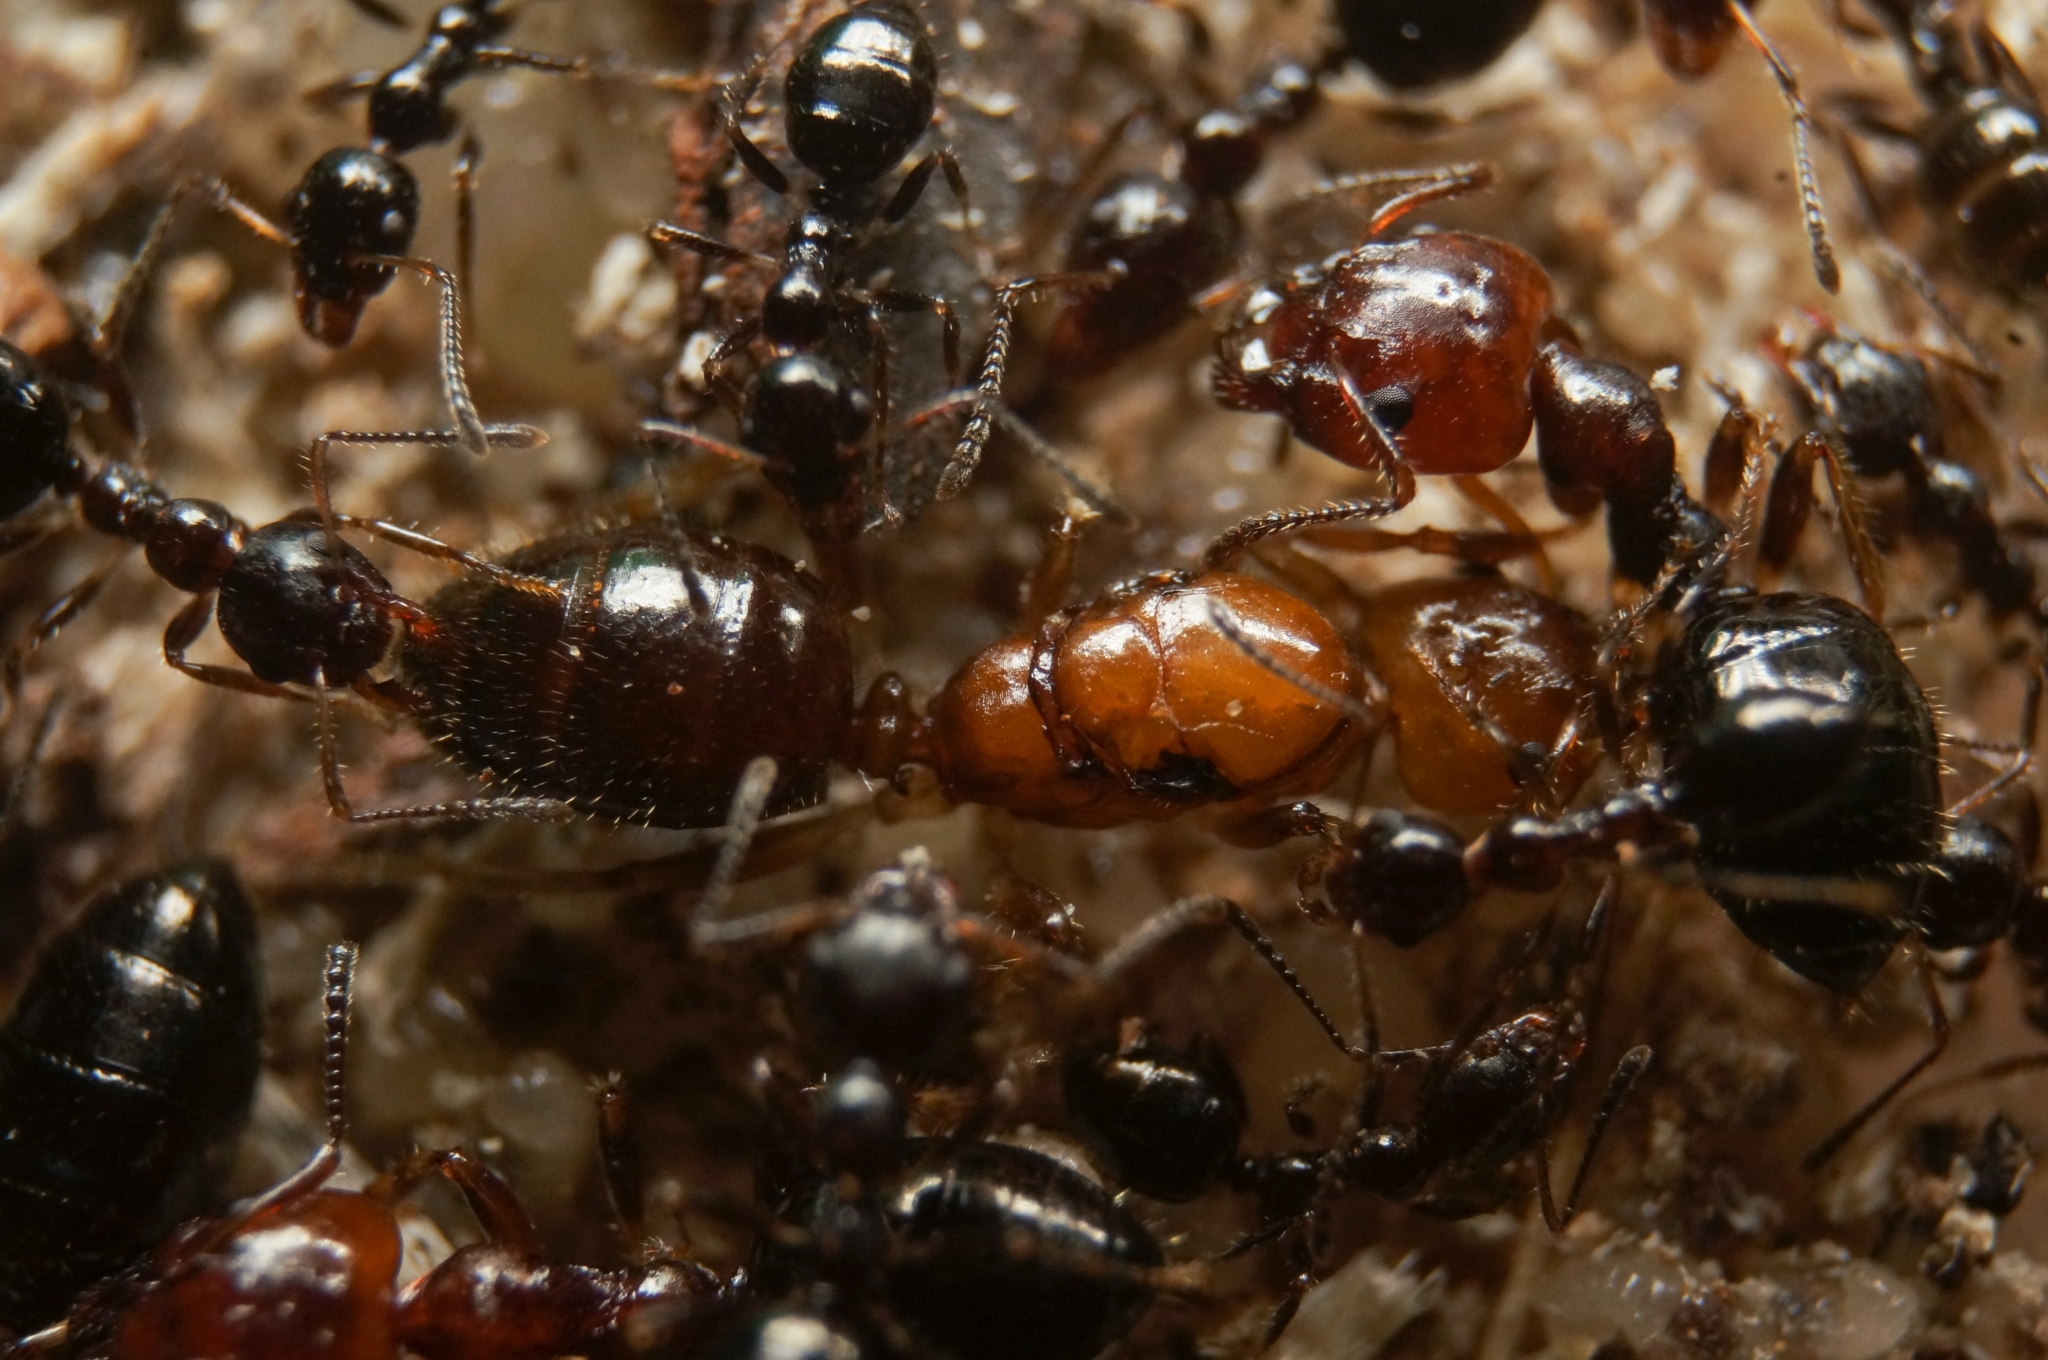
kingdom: Animalia
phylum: Arthropoda
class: Insecta
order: Hymenoptera
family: Formicidae
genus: Myrmecorhynchus
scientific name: Myrmecorhynchus emeryi
